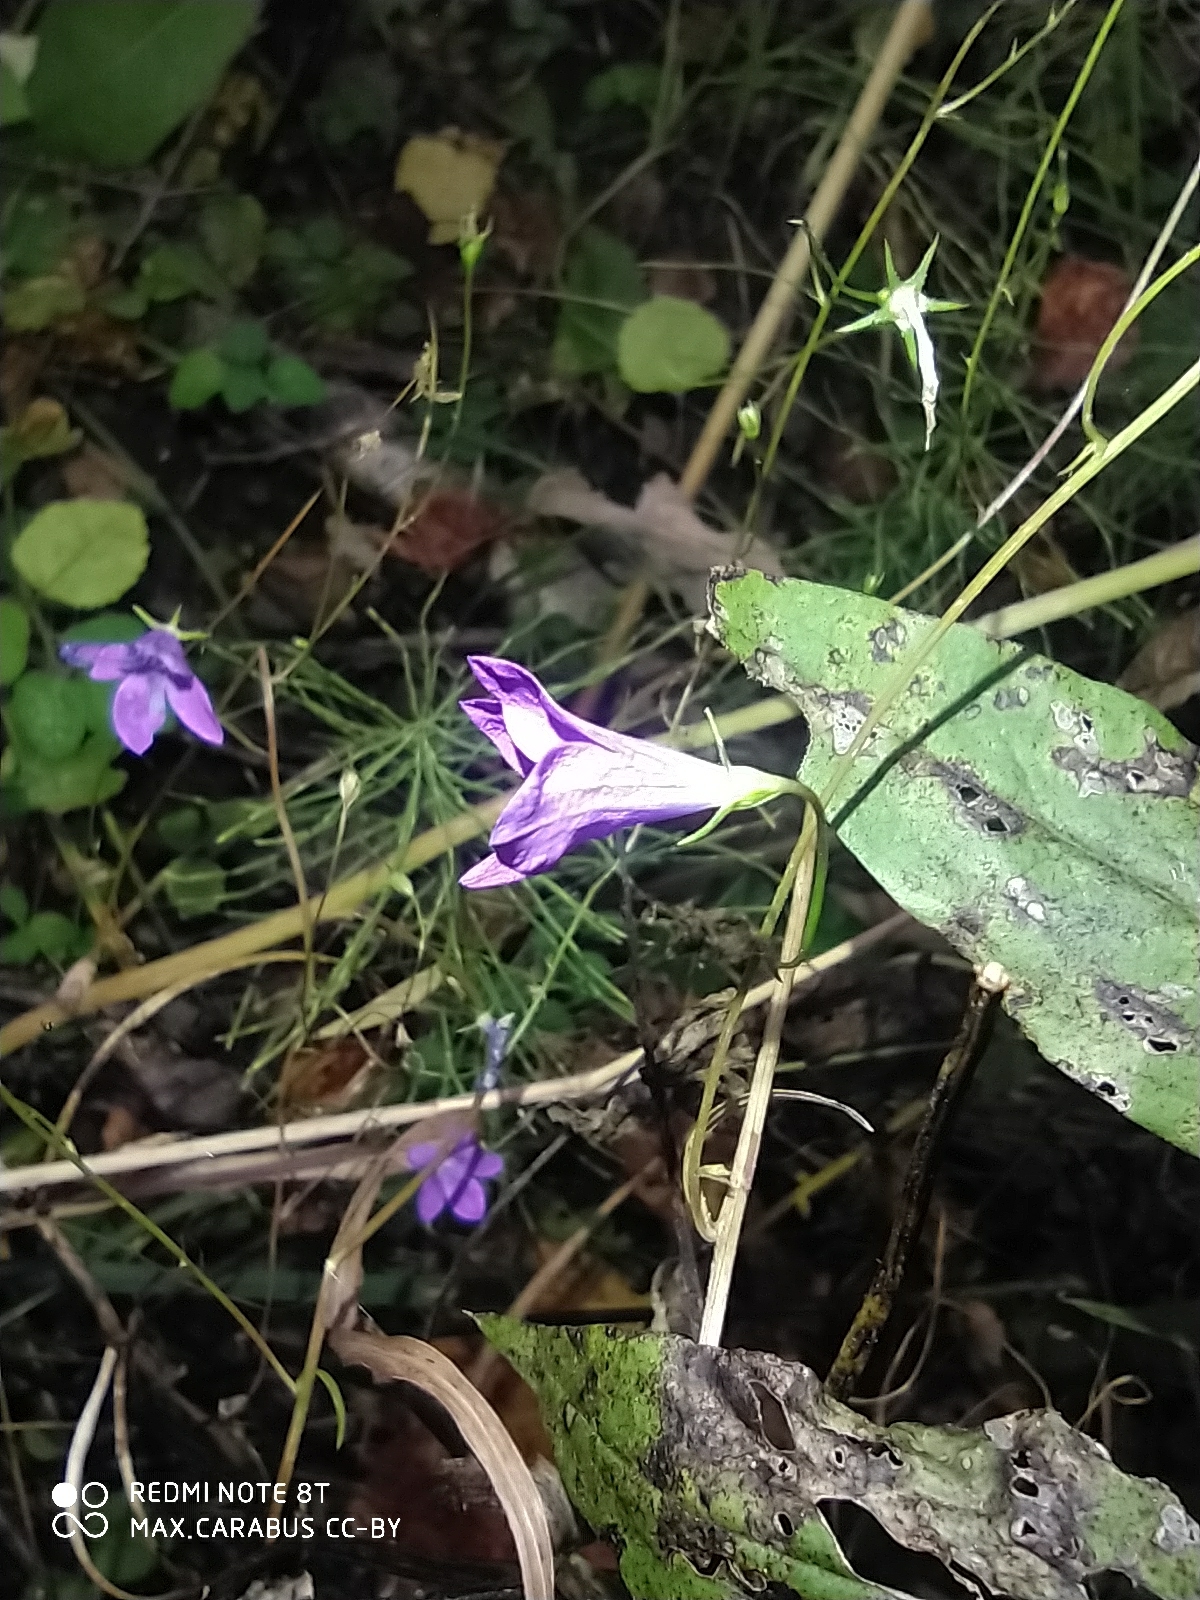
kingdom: Plantae
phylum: Tracheophyta
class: Magnoliopsida
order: Asterales
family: Campanulaceae
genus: Campanula
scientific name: Campanula patula
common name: Spreading bellflower
